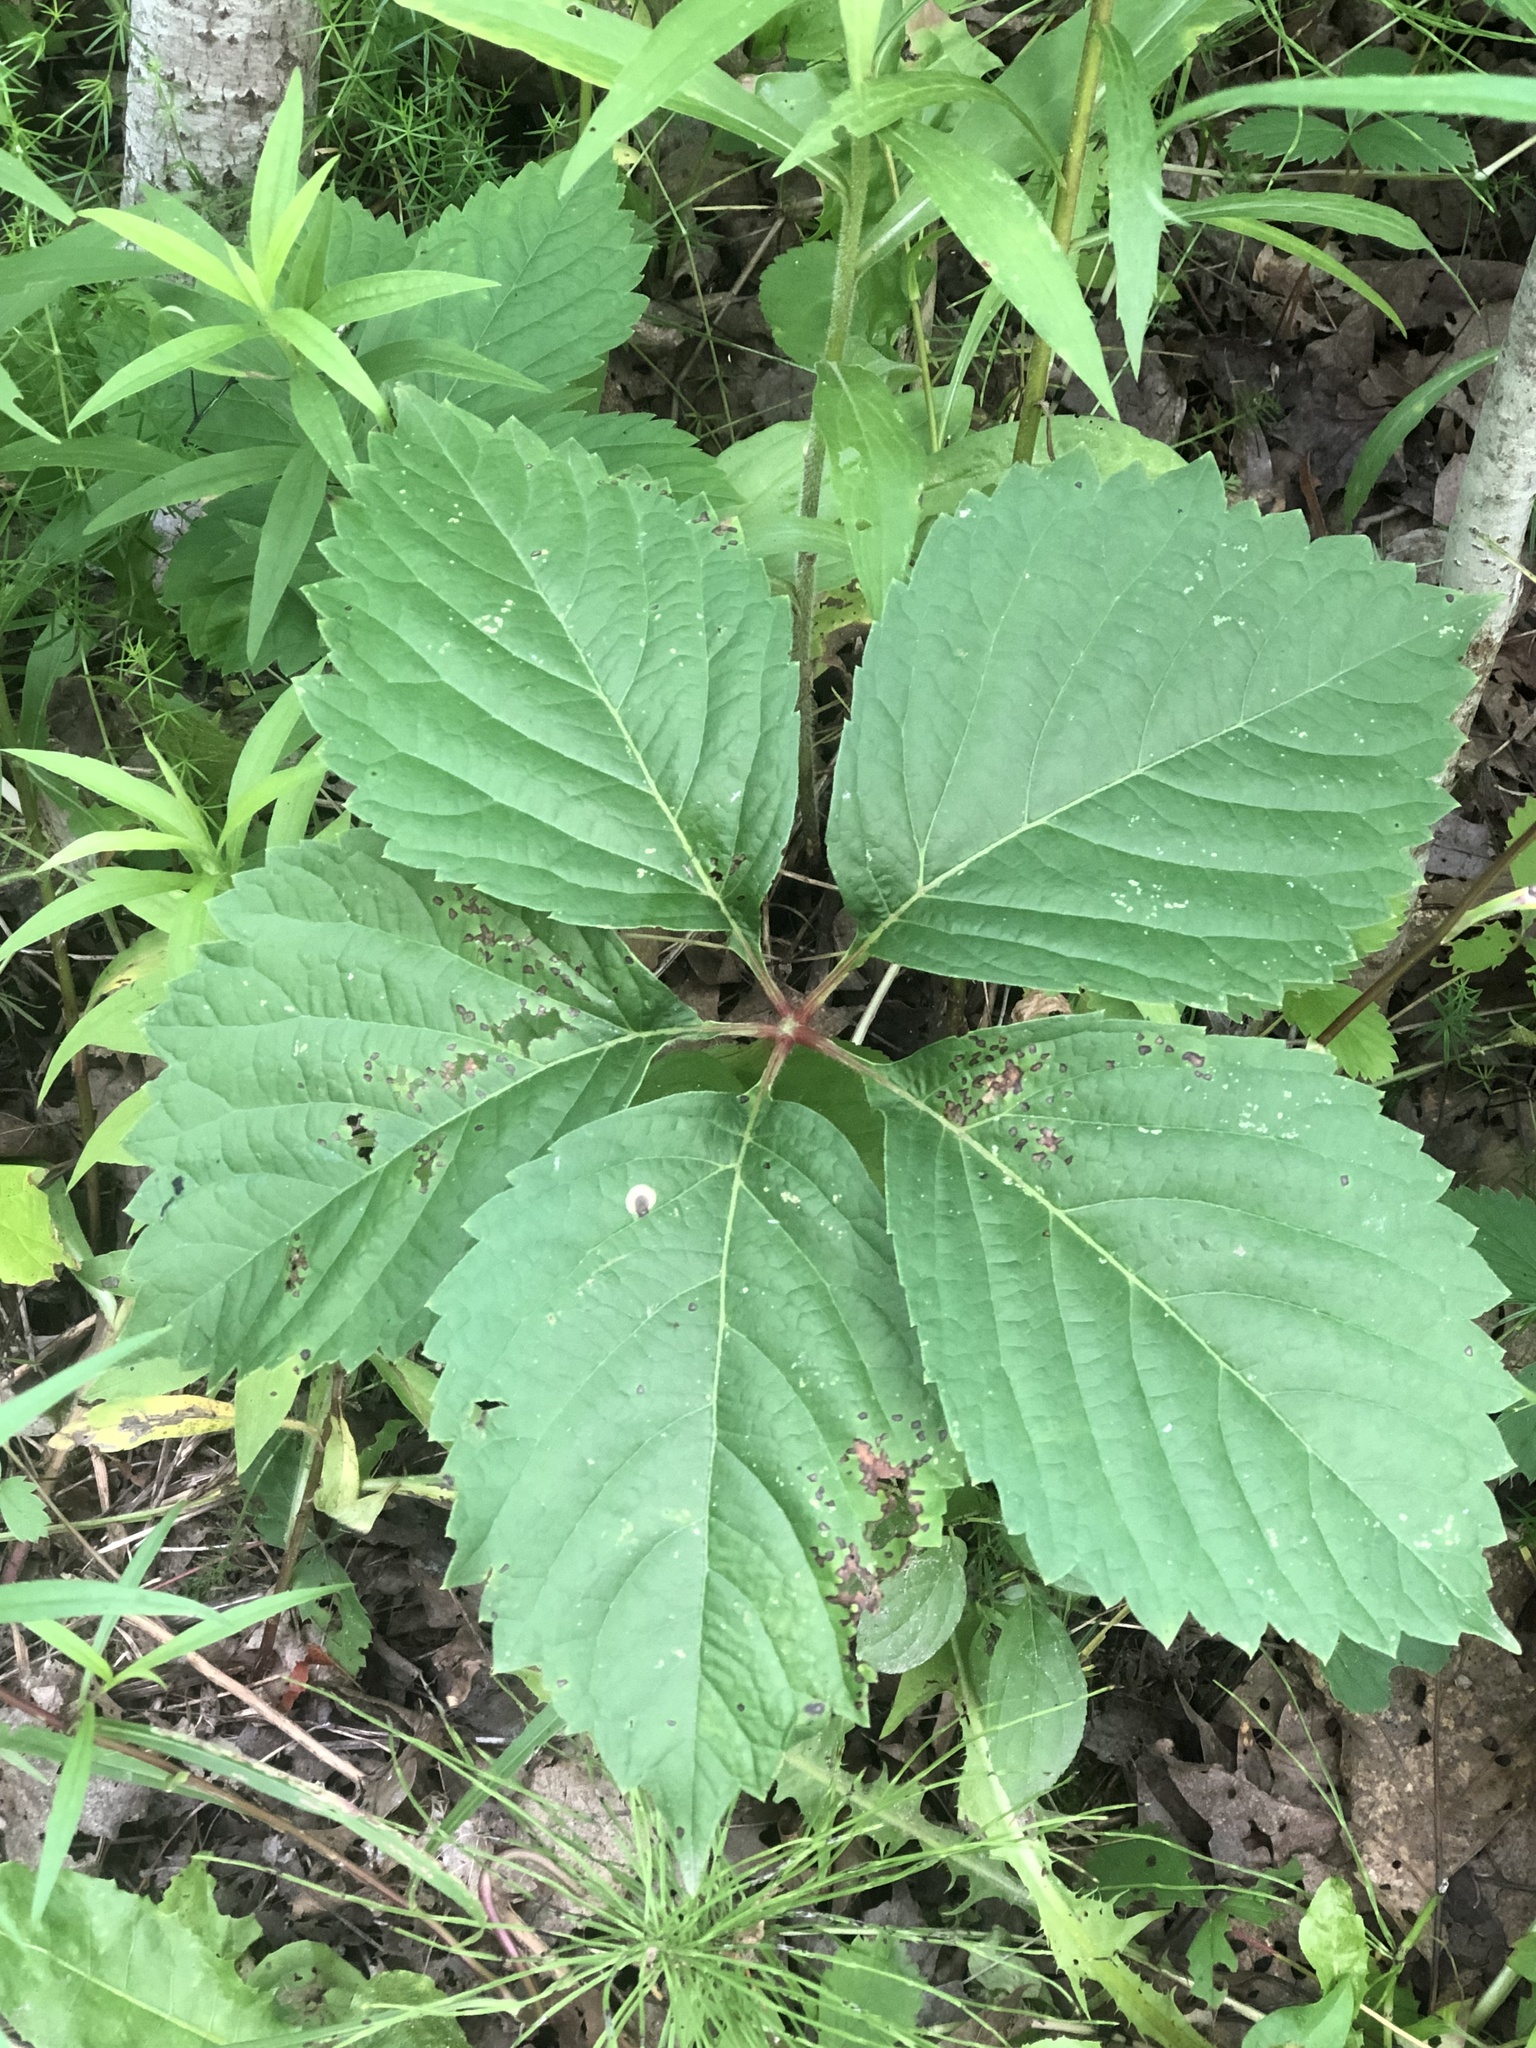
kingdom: Plantae
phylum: Tracheophyta
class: Magnoliopsida
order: Vitales
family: Vitaceae
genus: Parthenocissus
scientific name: Parthenocissus inserta
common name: False virginia-creeper
